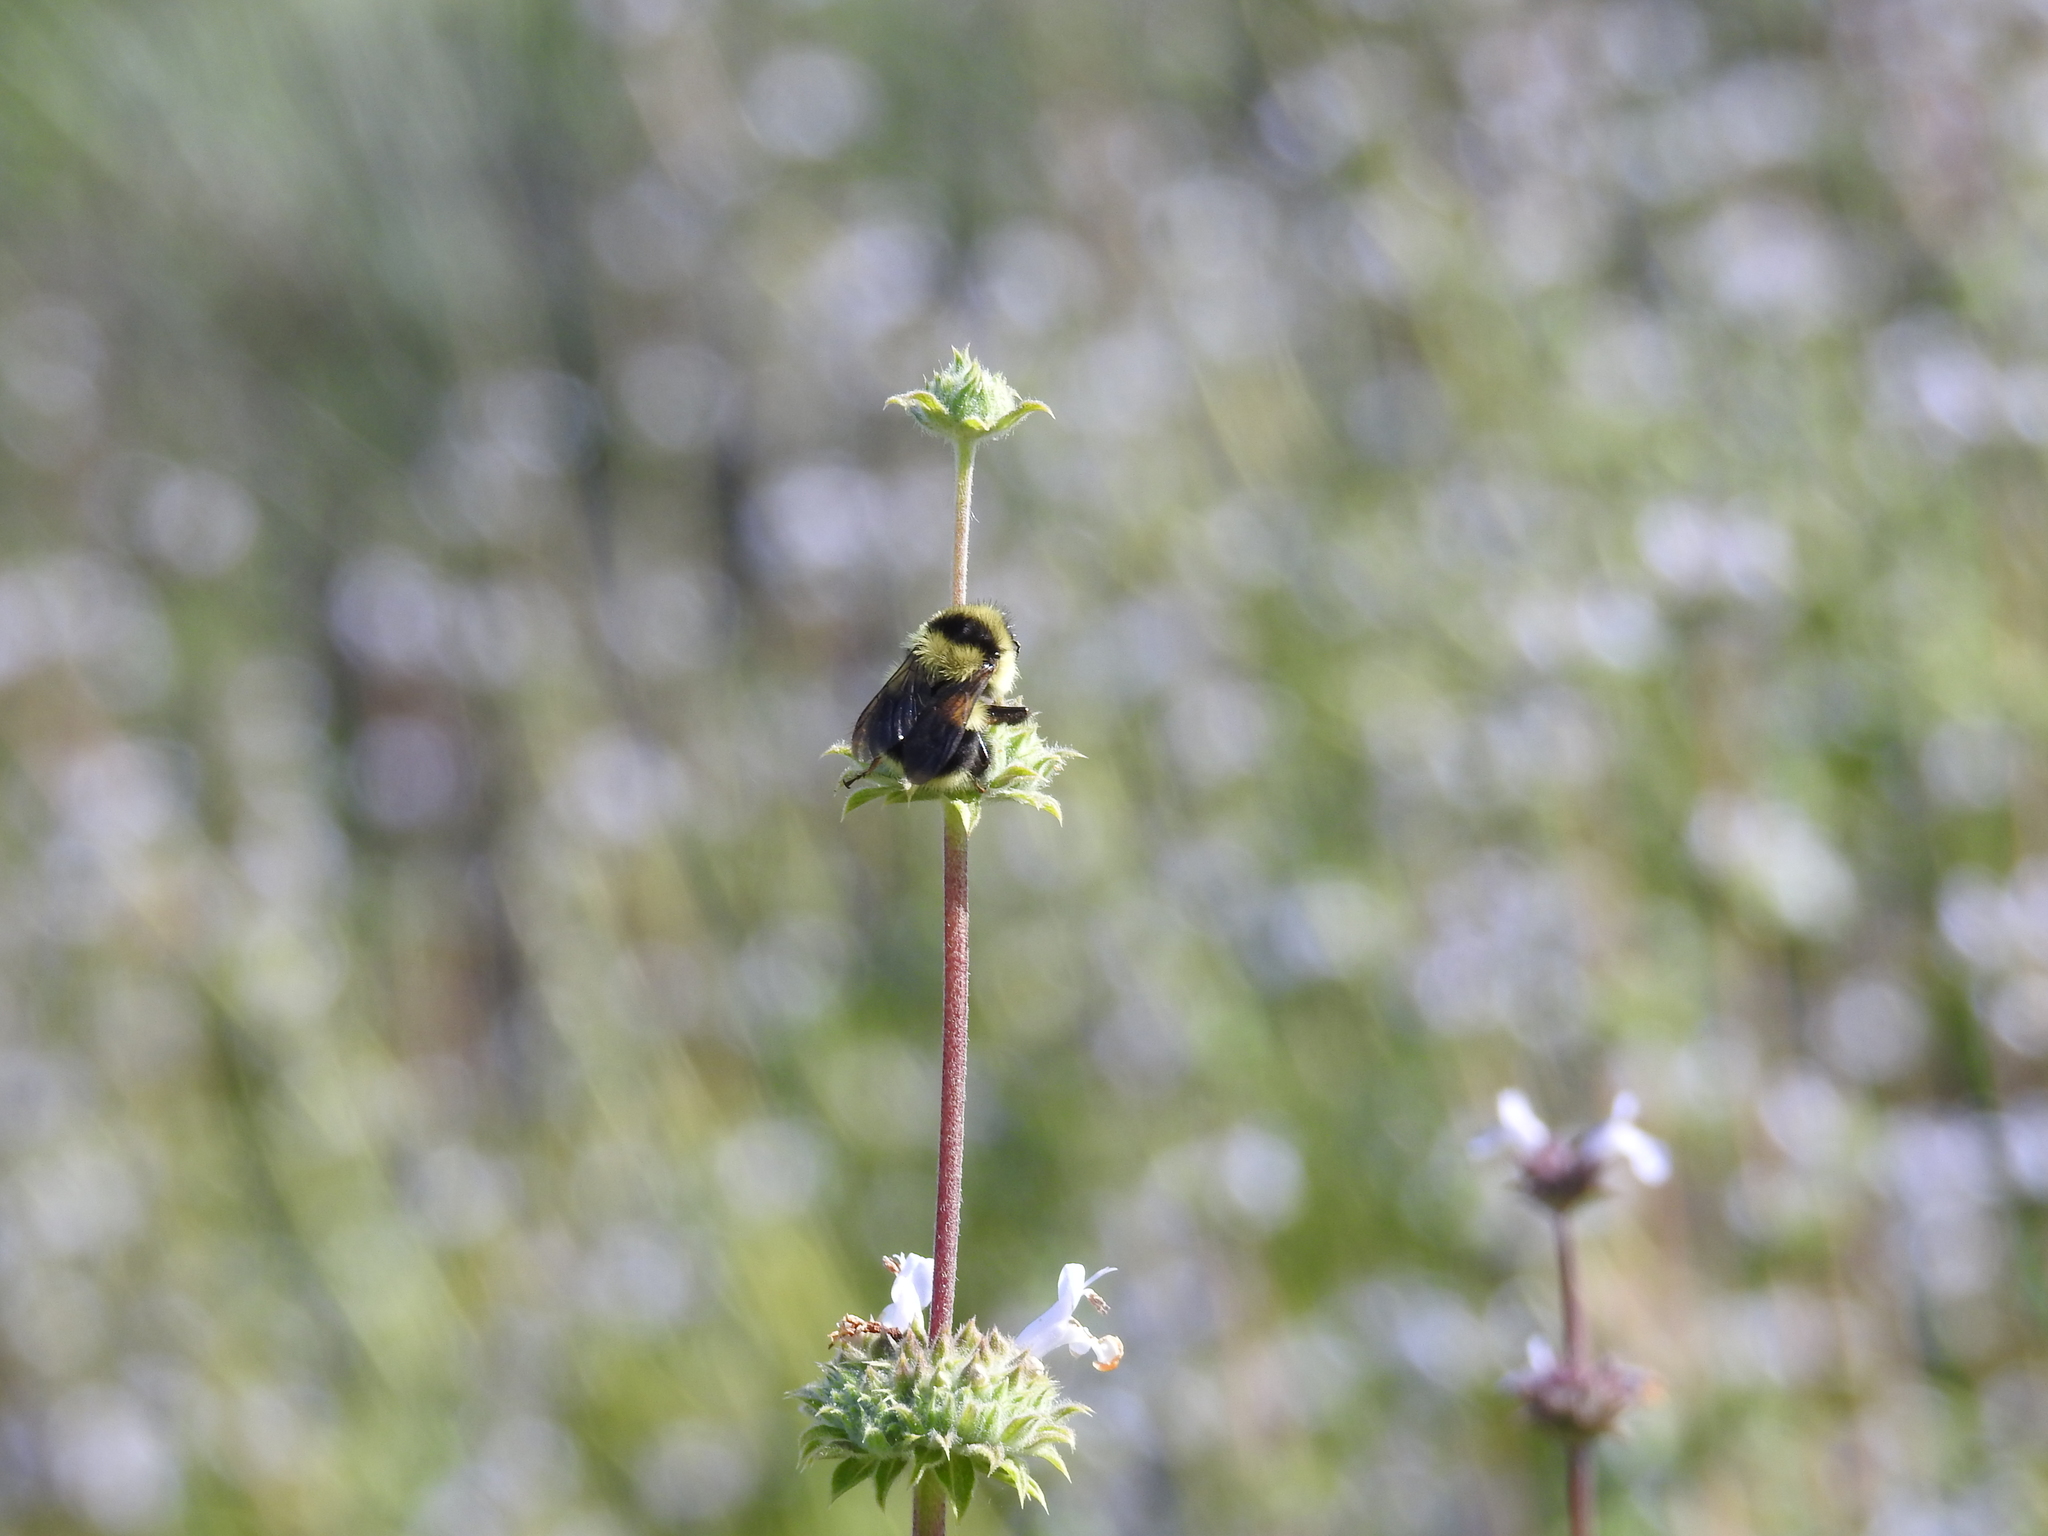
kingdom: Animalia
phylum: Arthropoda
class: Insecta
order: Hymenoptera
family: Apidae
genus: Bombus
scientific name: Bombus melanopygus
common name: Black tail bumble bee
